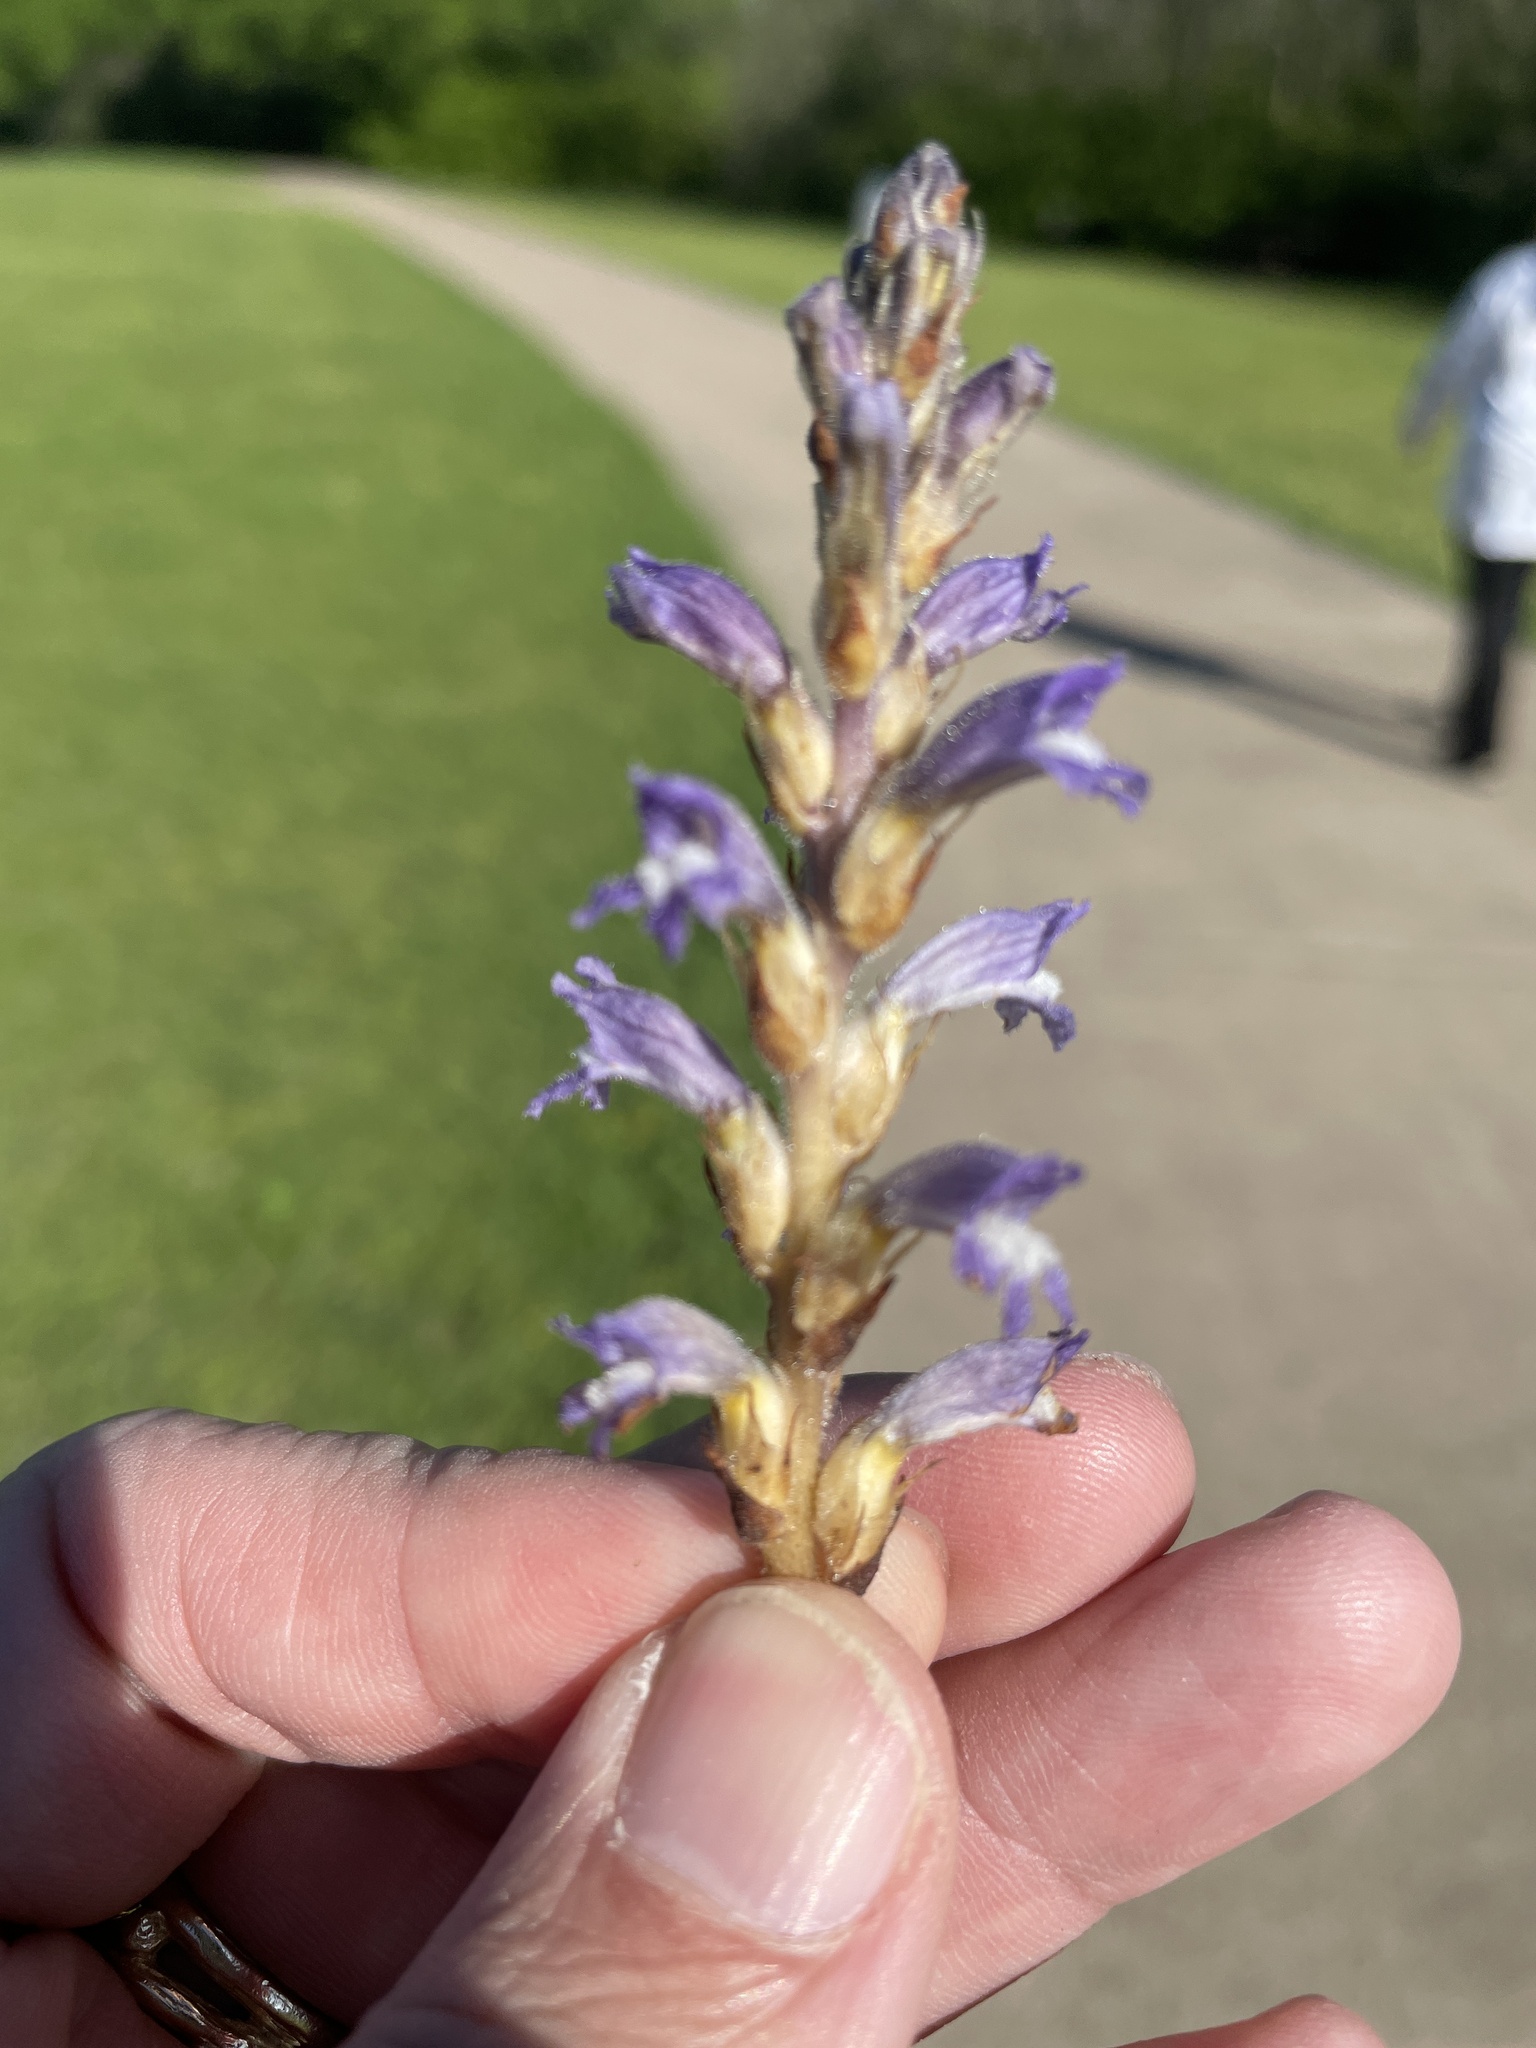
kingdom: Plantae
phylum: Tracheophyta
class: Magnoliopsida
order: Lamiales
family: Orobanchaceae
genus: Phelipanche
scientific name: Phelipanche mutelii
